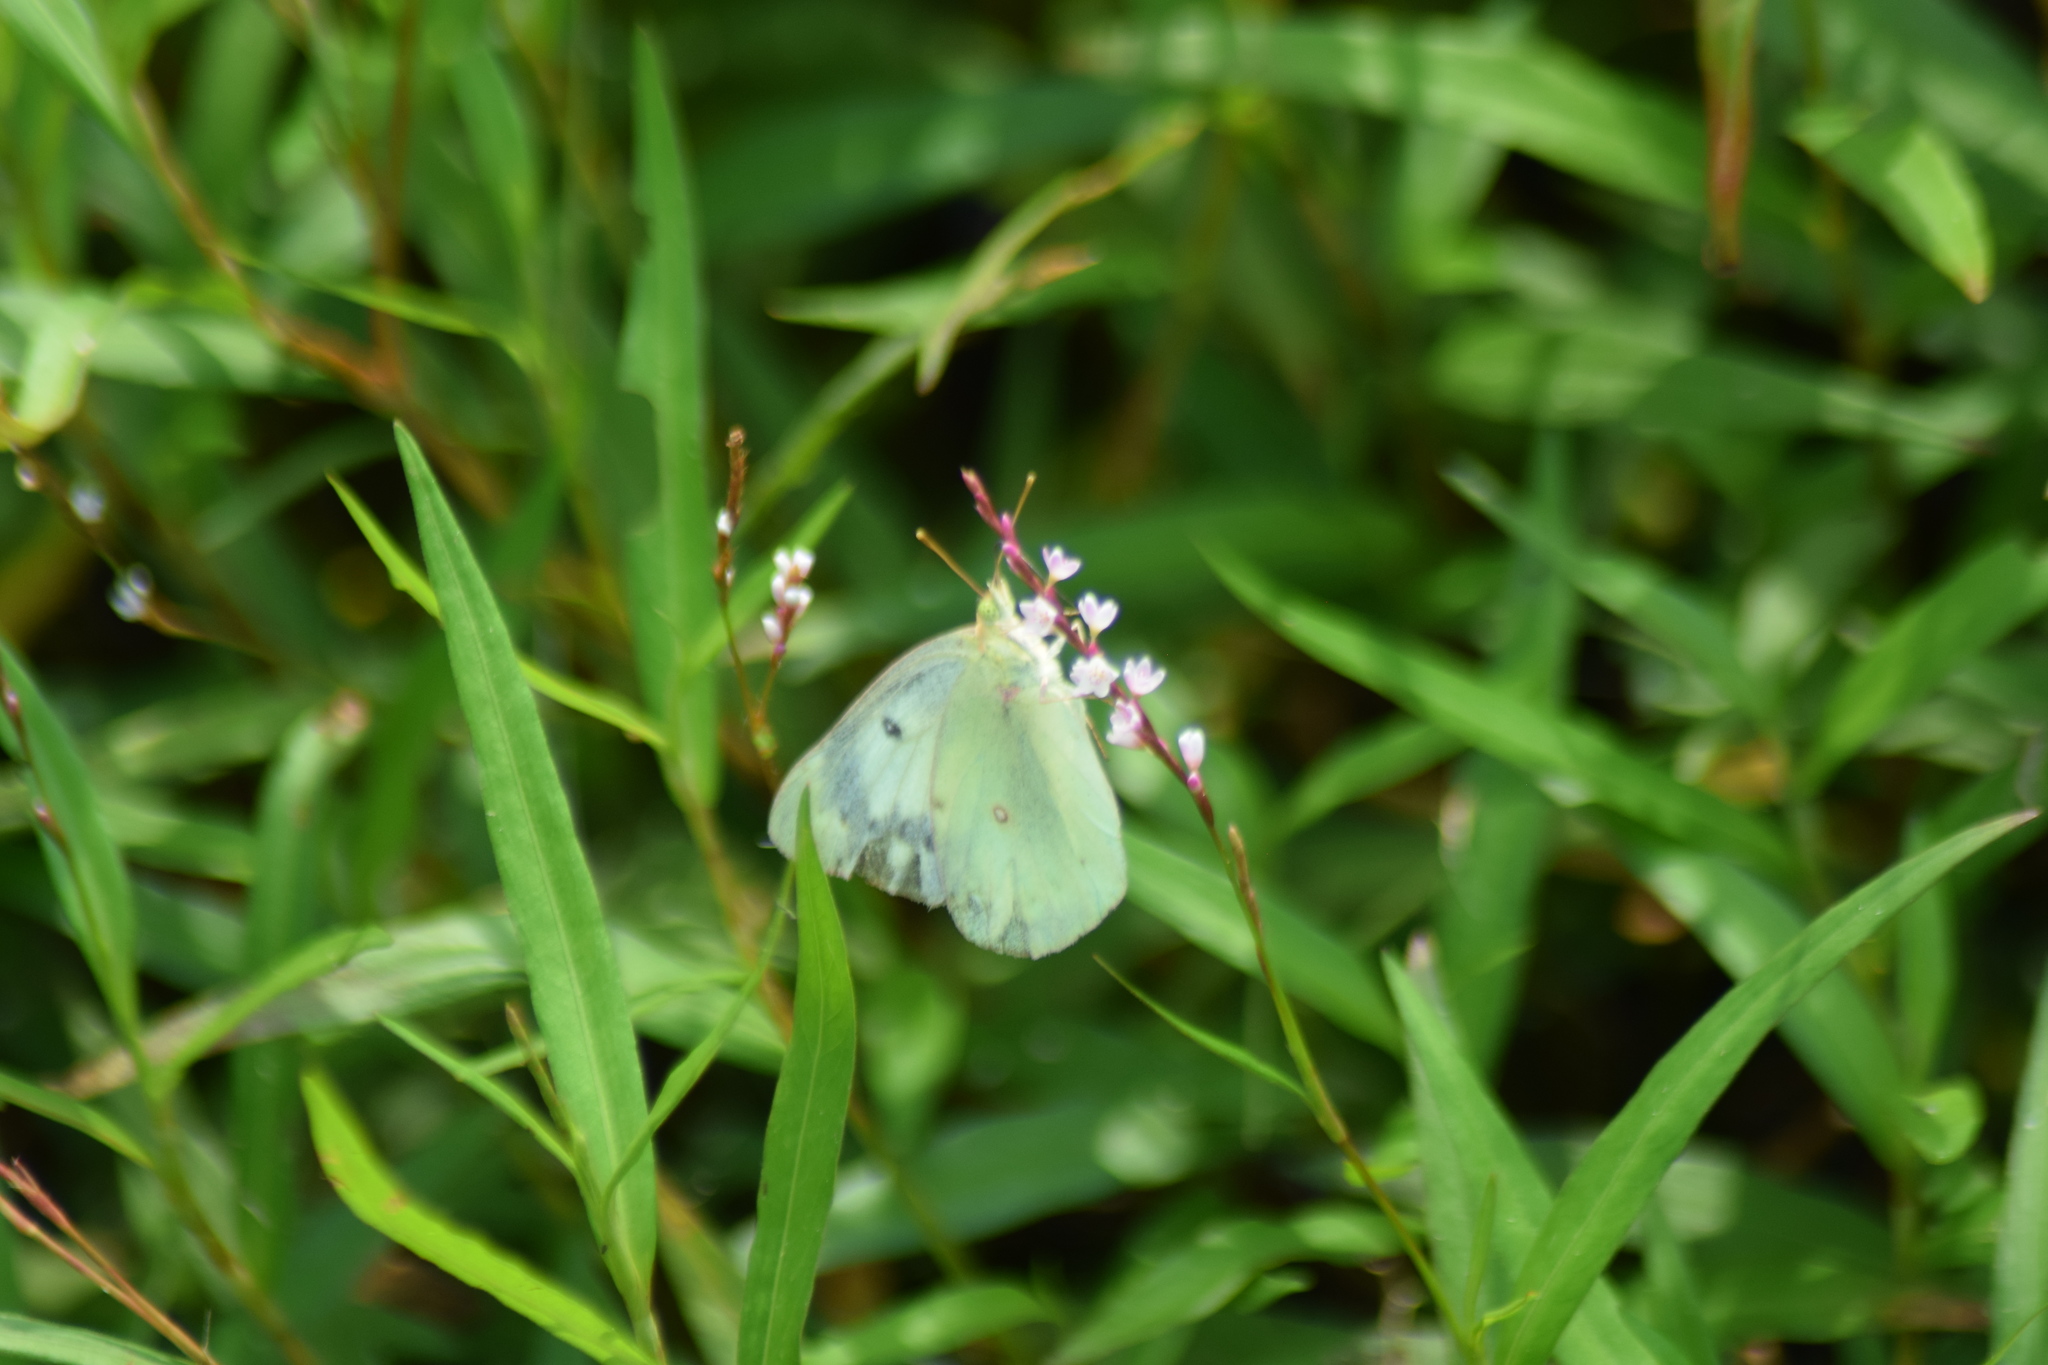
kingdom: Animalia
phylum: Arthropoda
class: Insecta
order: Lepidoptera
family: Pieridae
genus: Colias
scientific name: Colias
